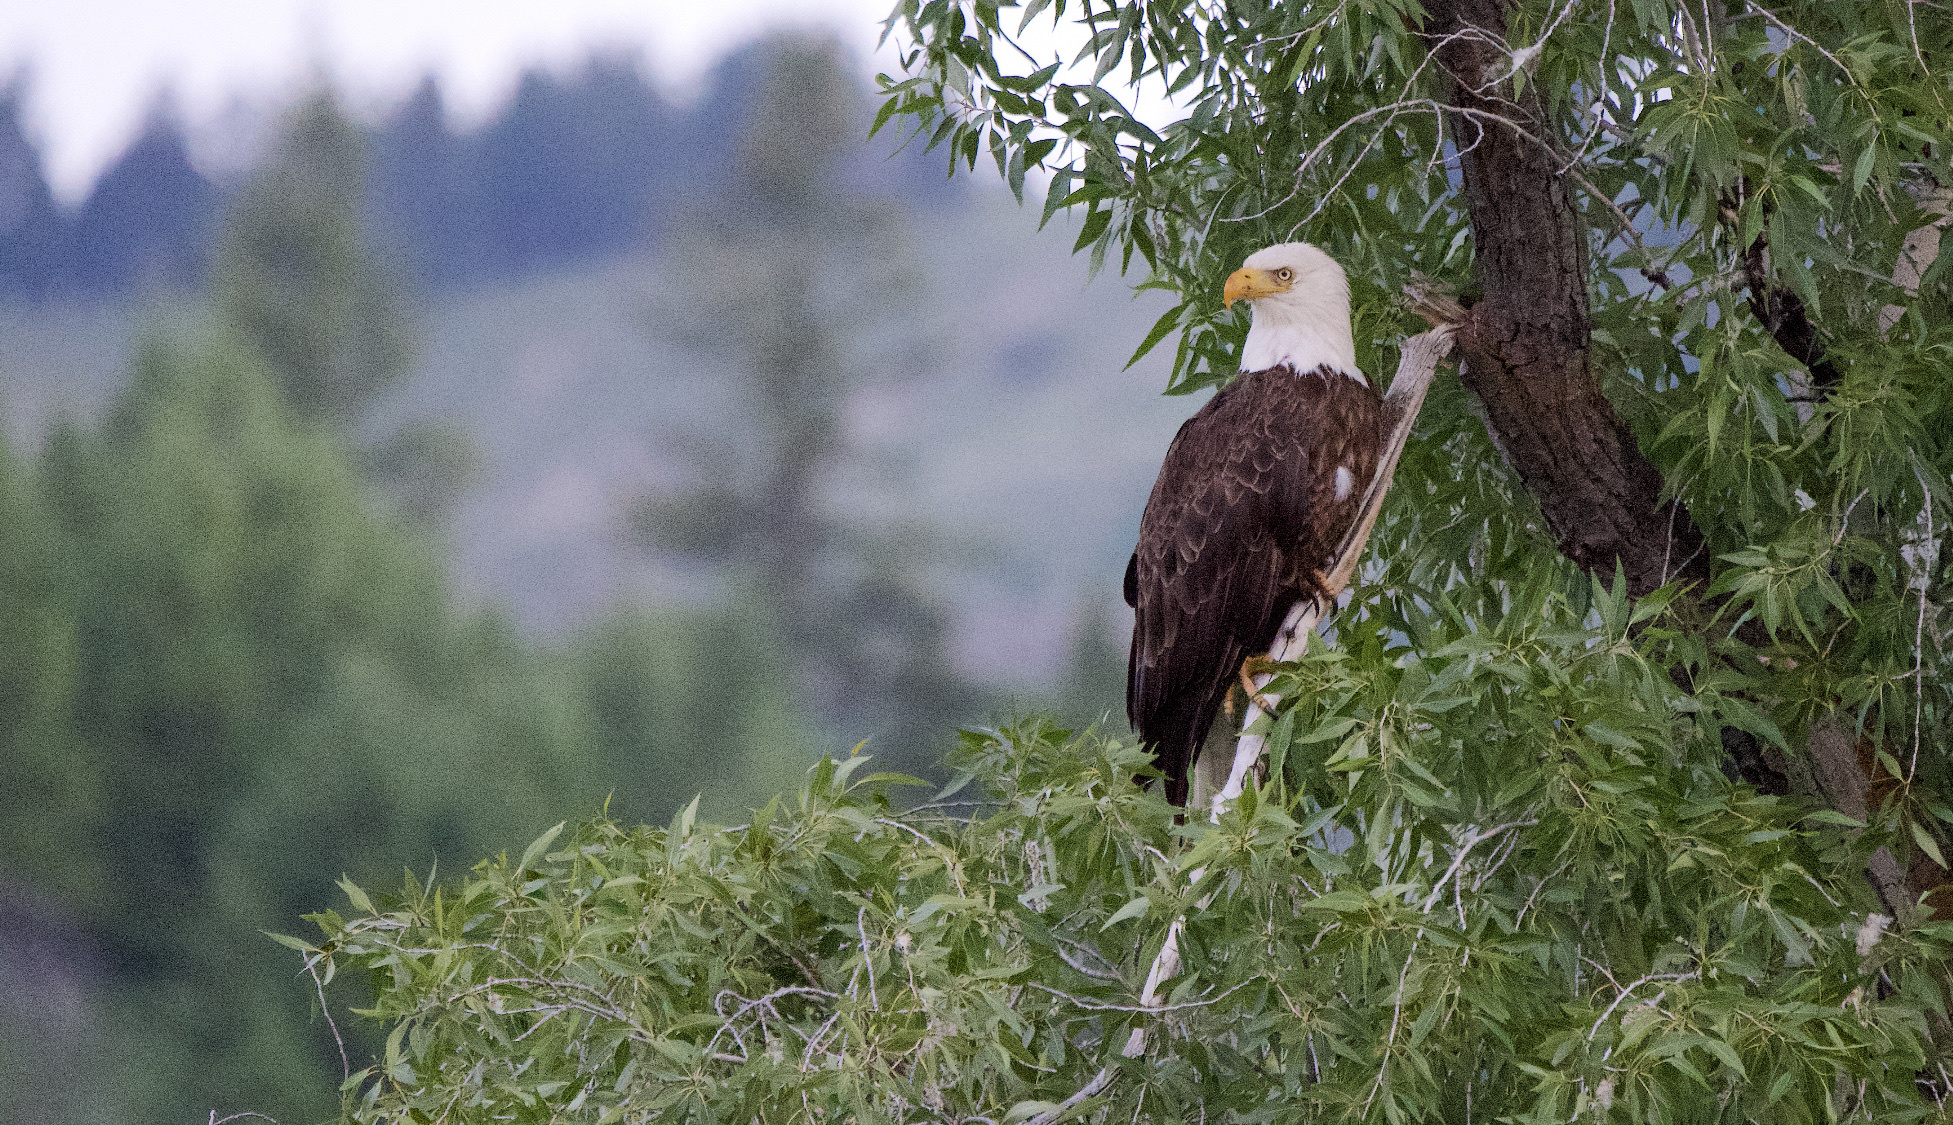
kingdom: Animalia
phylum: Chordata
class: Aves
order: Accipitriformes
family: Accipitridae
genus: Haliaeetus
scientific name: Haliaeetus leucocephalus
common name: Bald eagle
